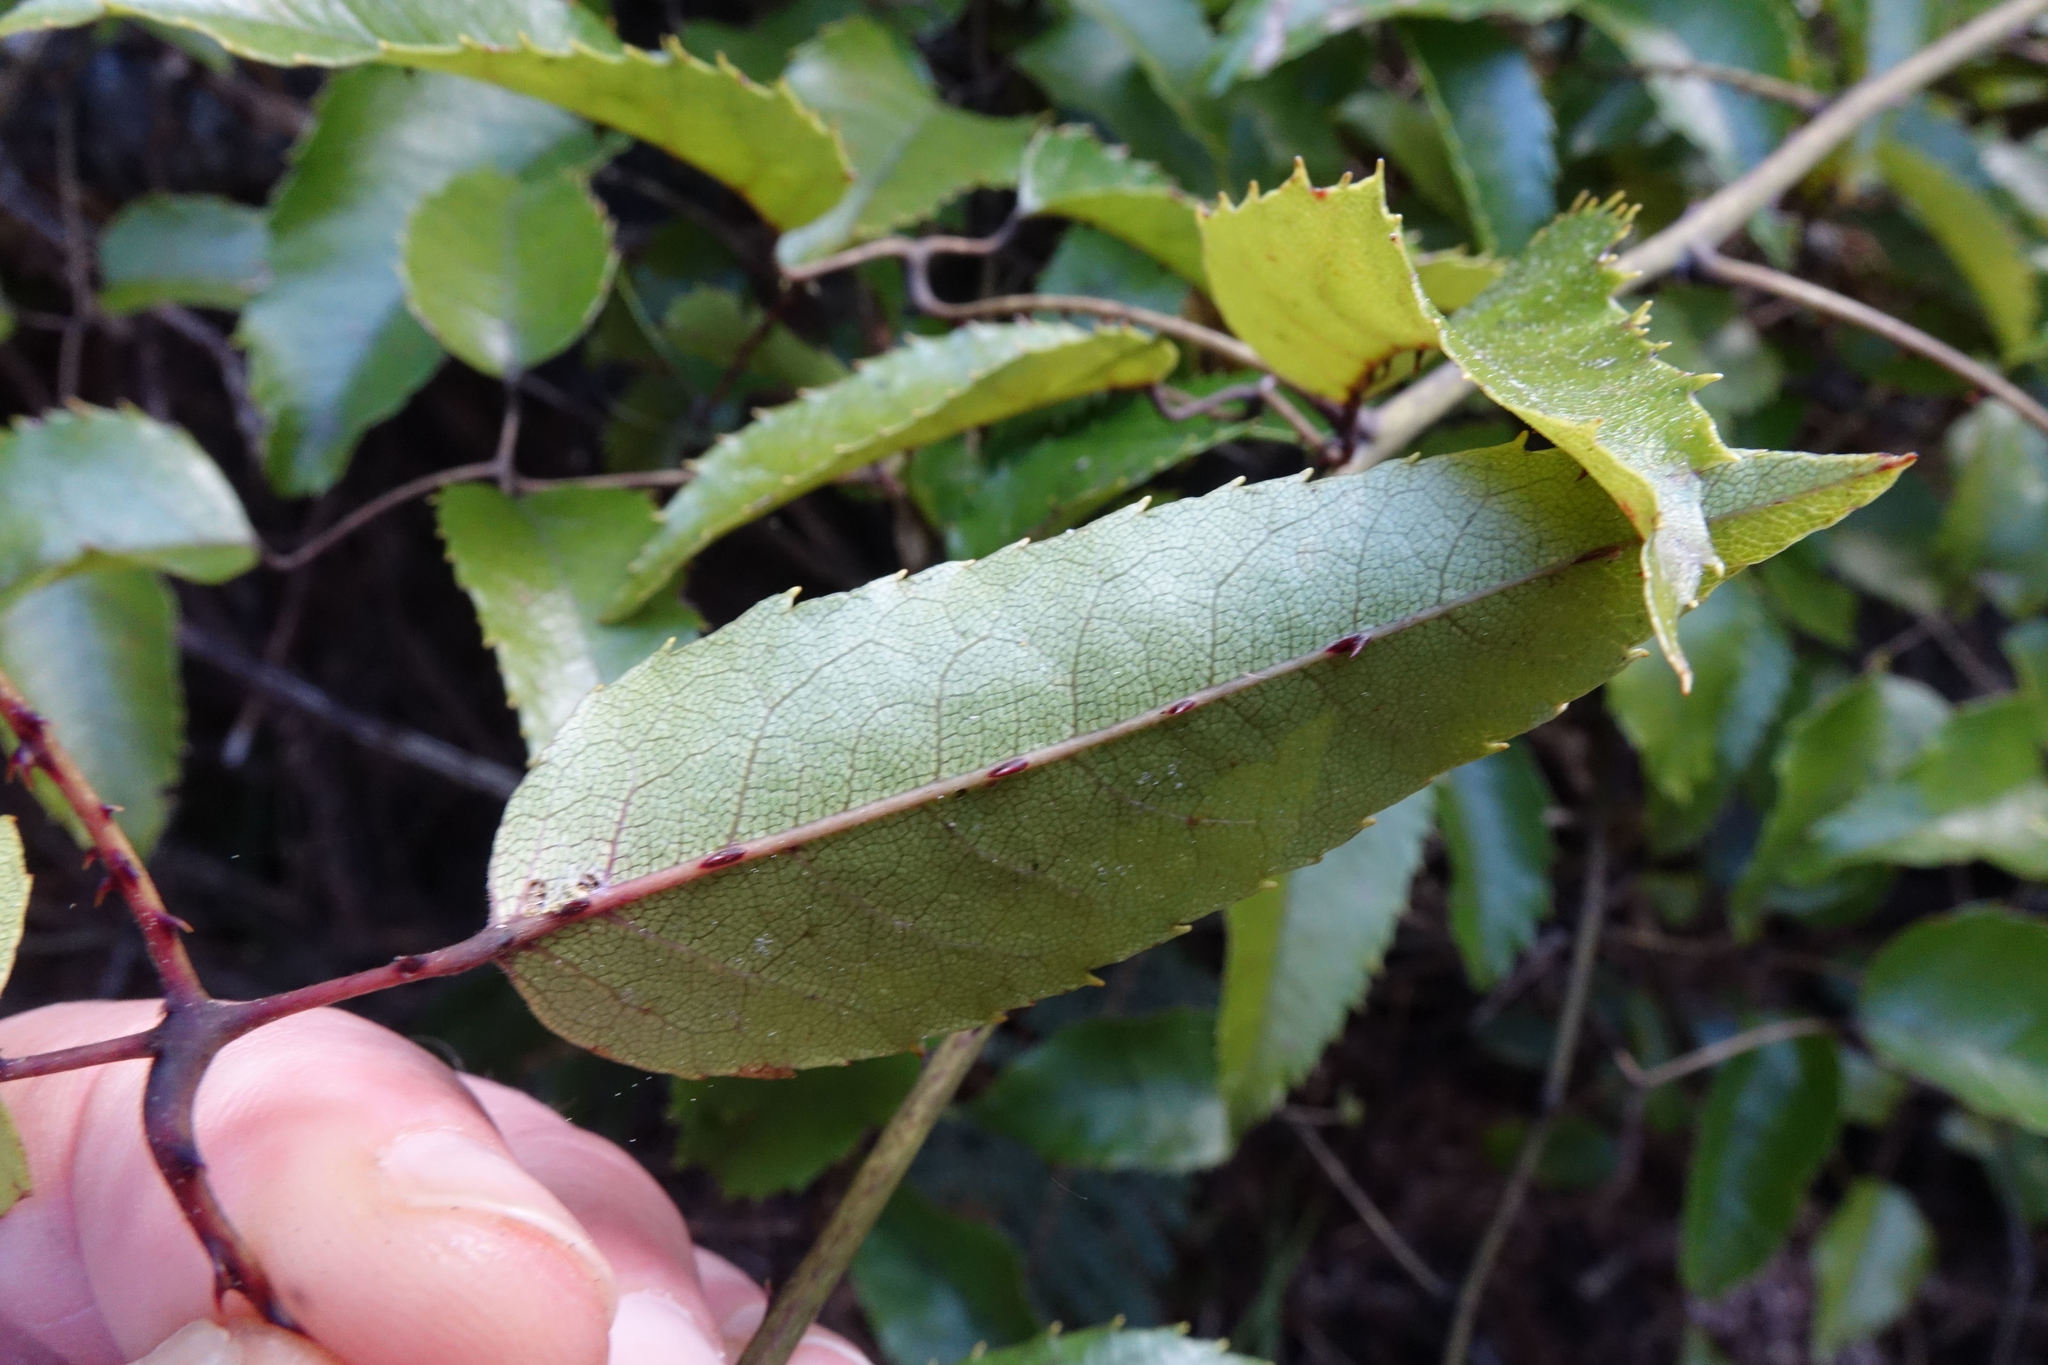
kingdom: Plantae
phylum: Tracheophyta
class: Magnoliopsida
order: Rosales
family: Rosaceae
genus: Rubus
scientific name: Rubus cissoides
